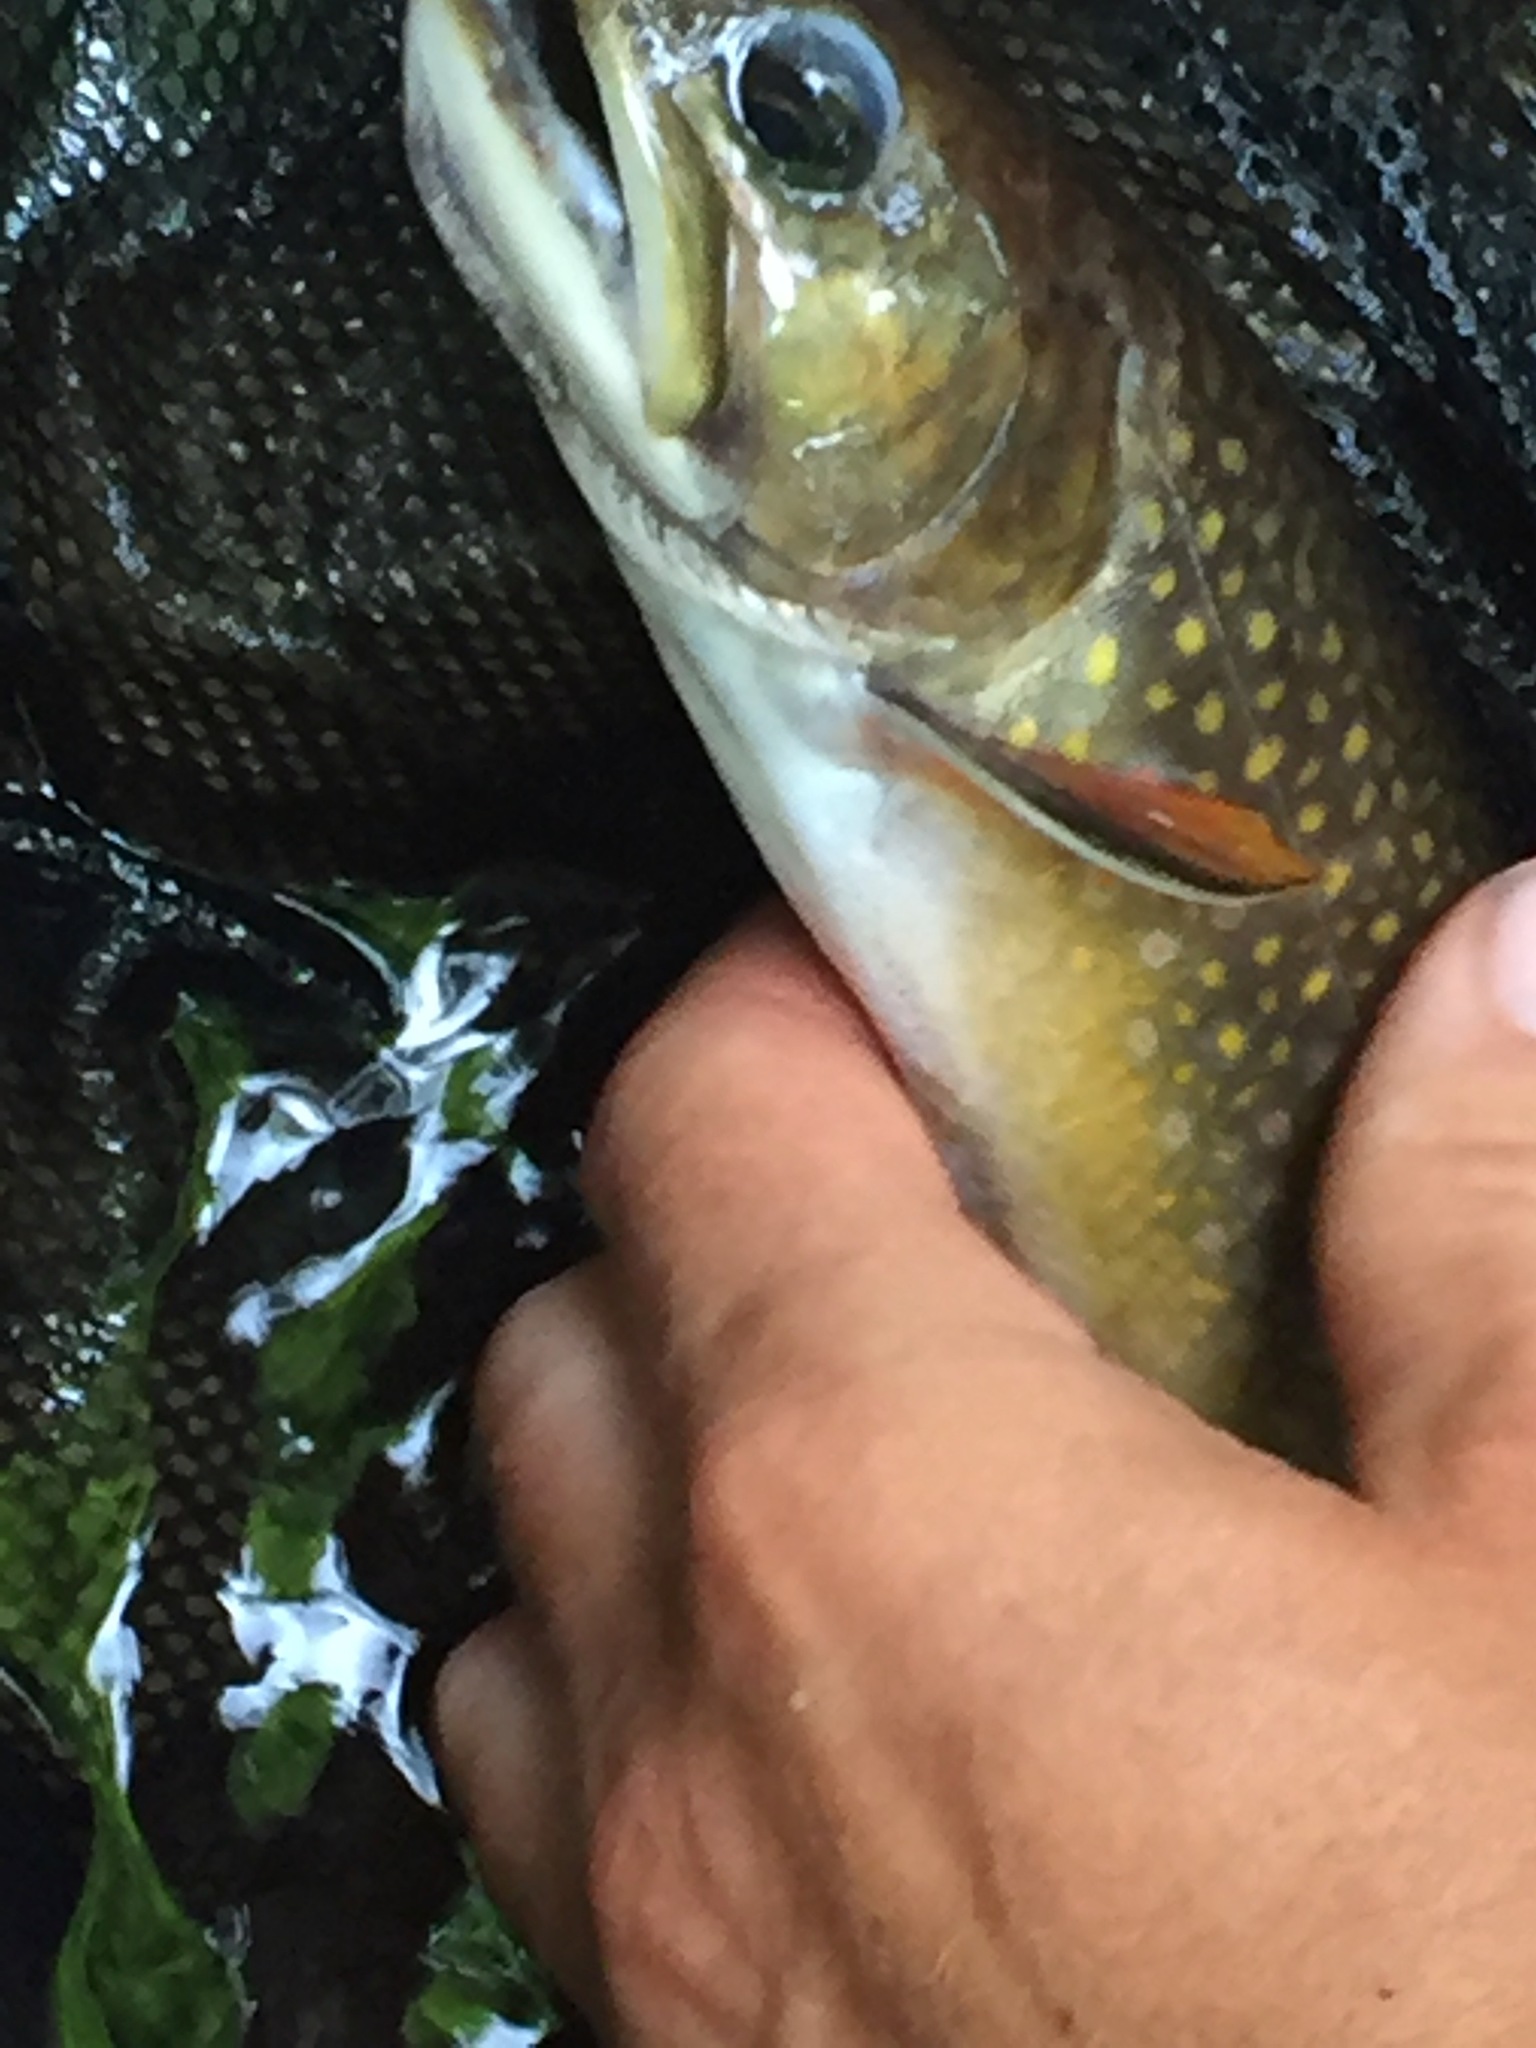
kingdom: Animalia
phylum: Chordata
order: Salmoniformes
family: Salmonidae
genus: Salvelinus
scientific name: Salvelinus fontinalis
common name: Brook trout
